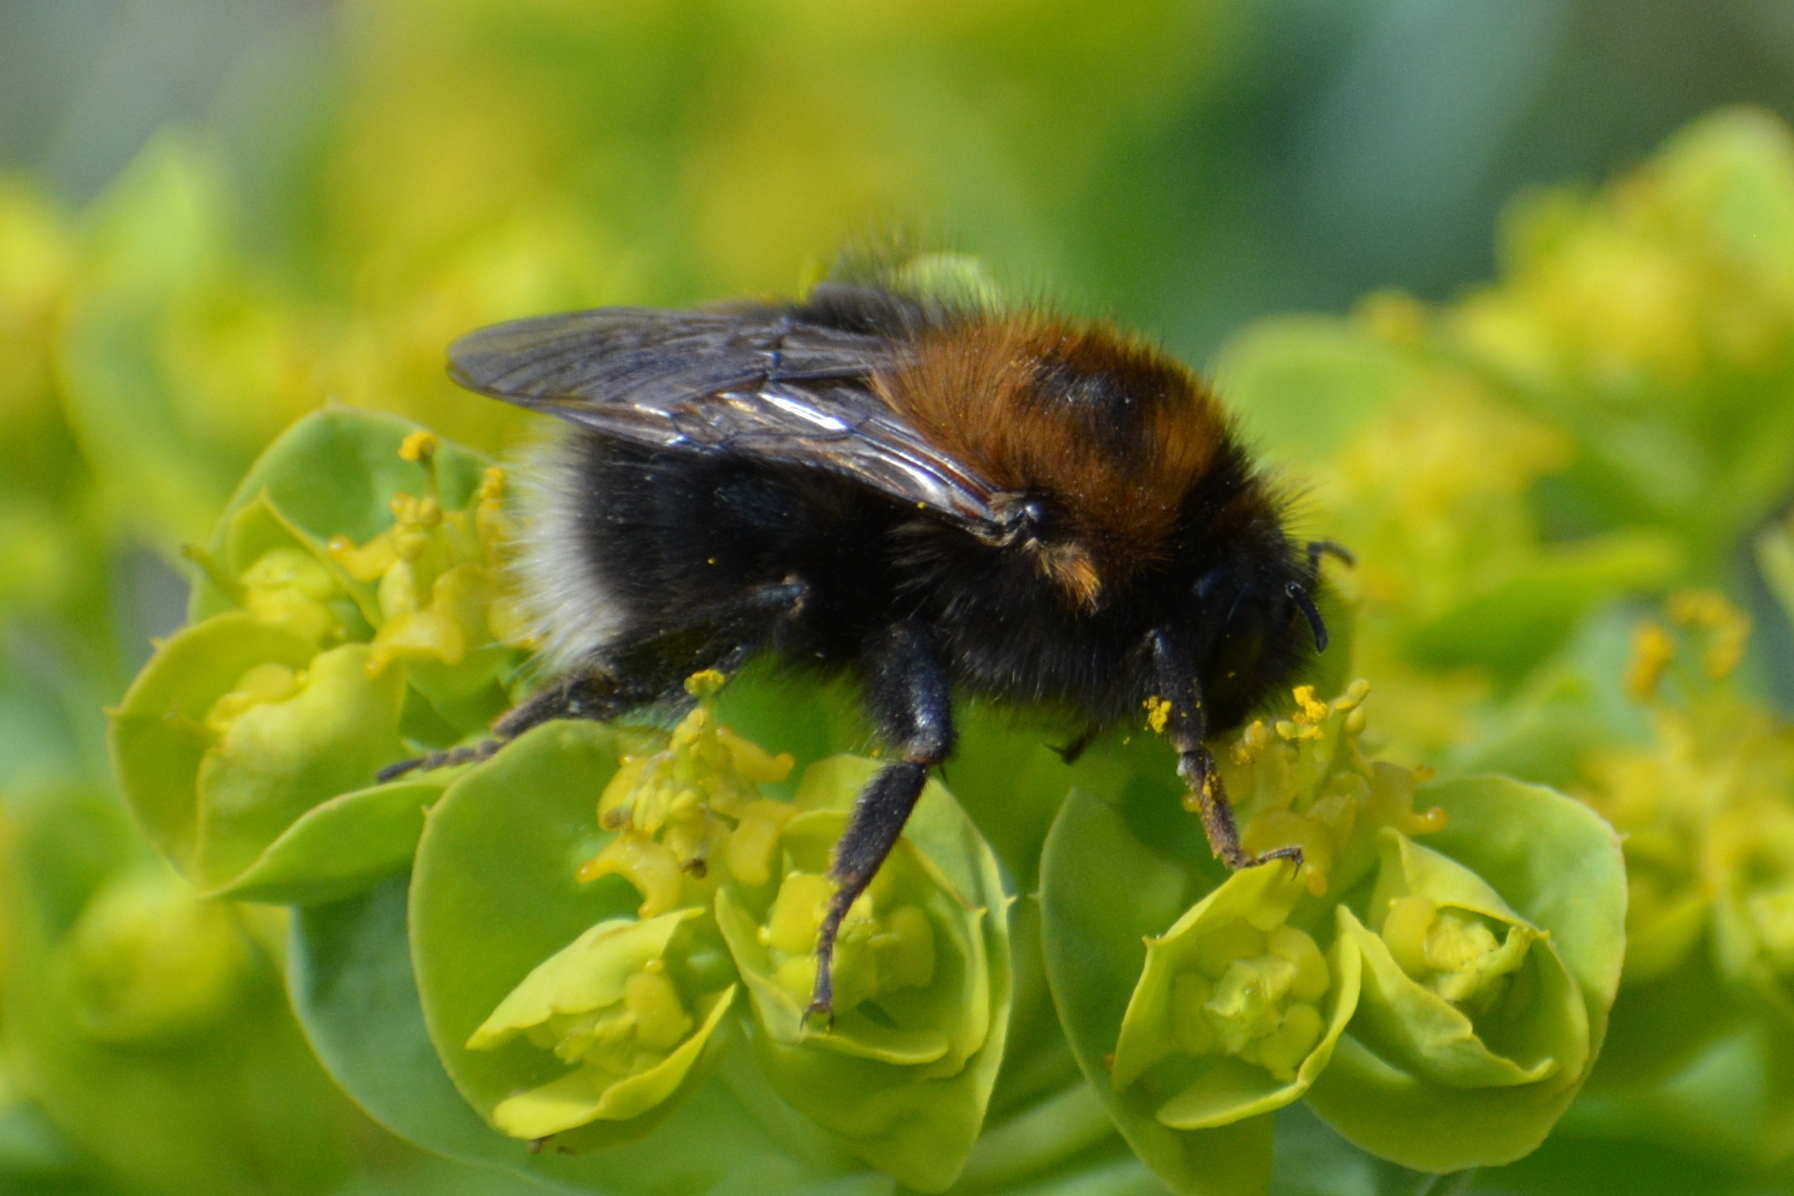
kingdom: Animalia
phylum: Arthropoda
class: Insecta
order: Hymenoptera
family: Apidae
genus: Bombus
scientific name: Bombus hypnorum
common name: New garden bumblebee
